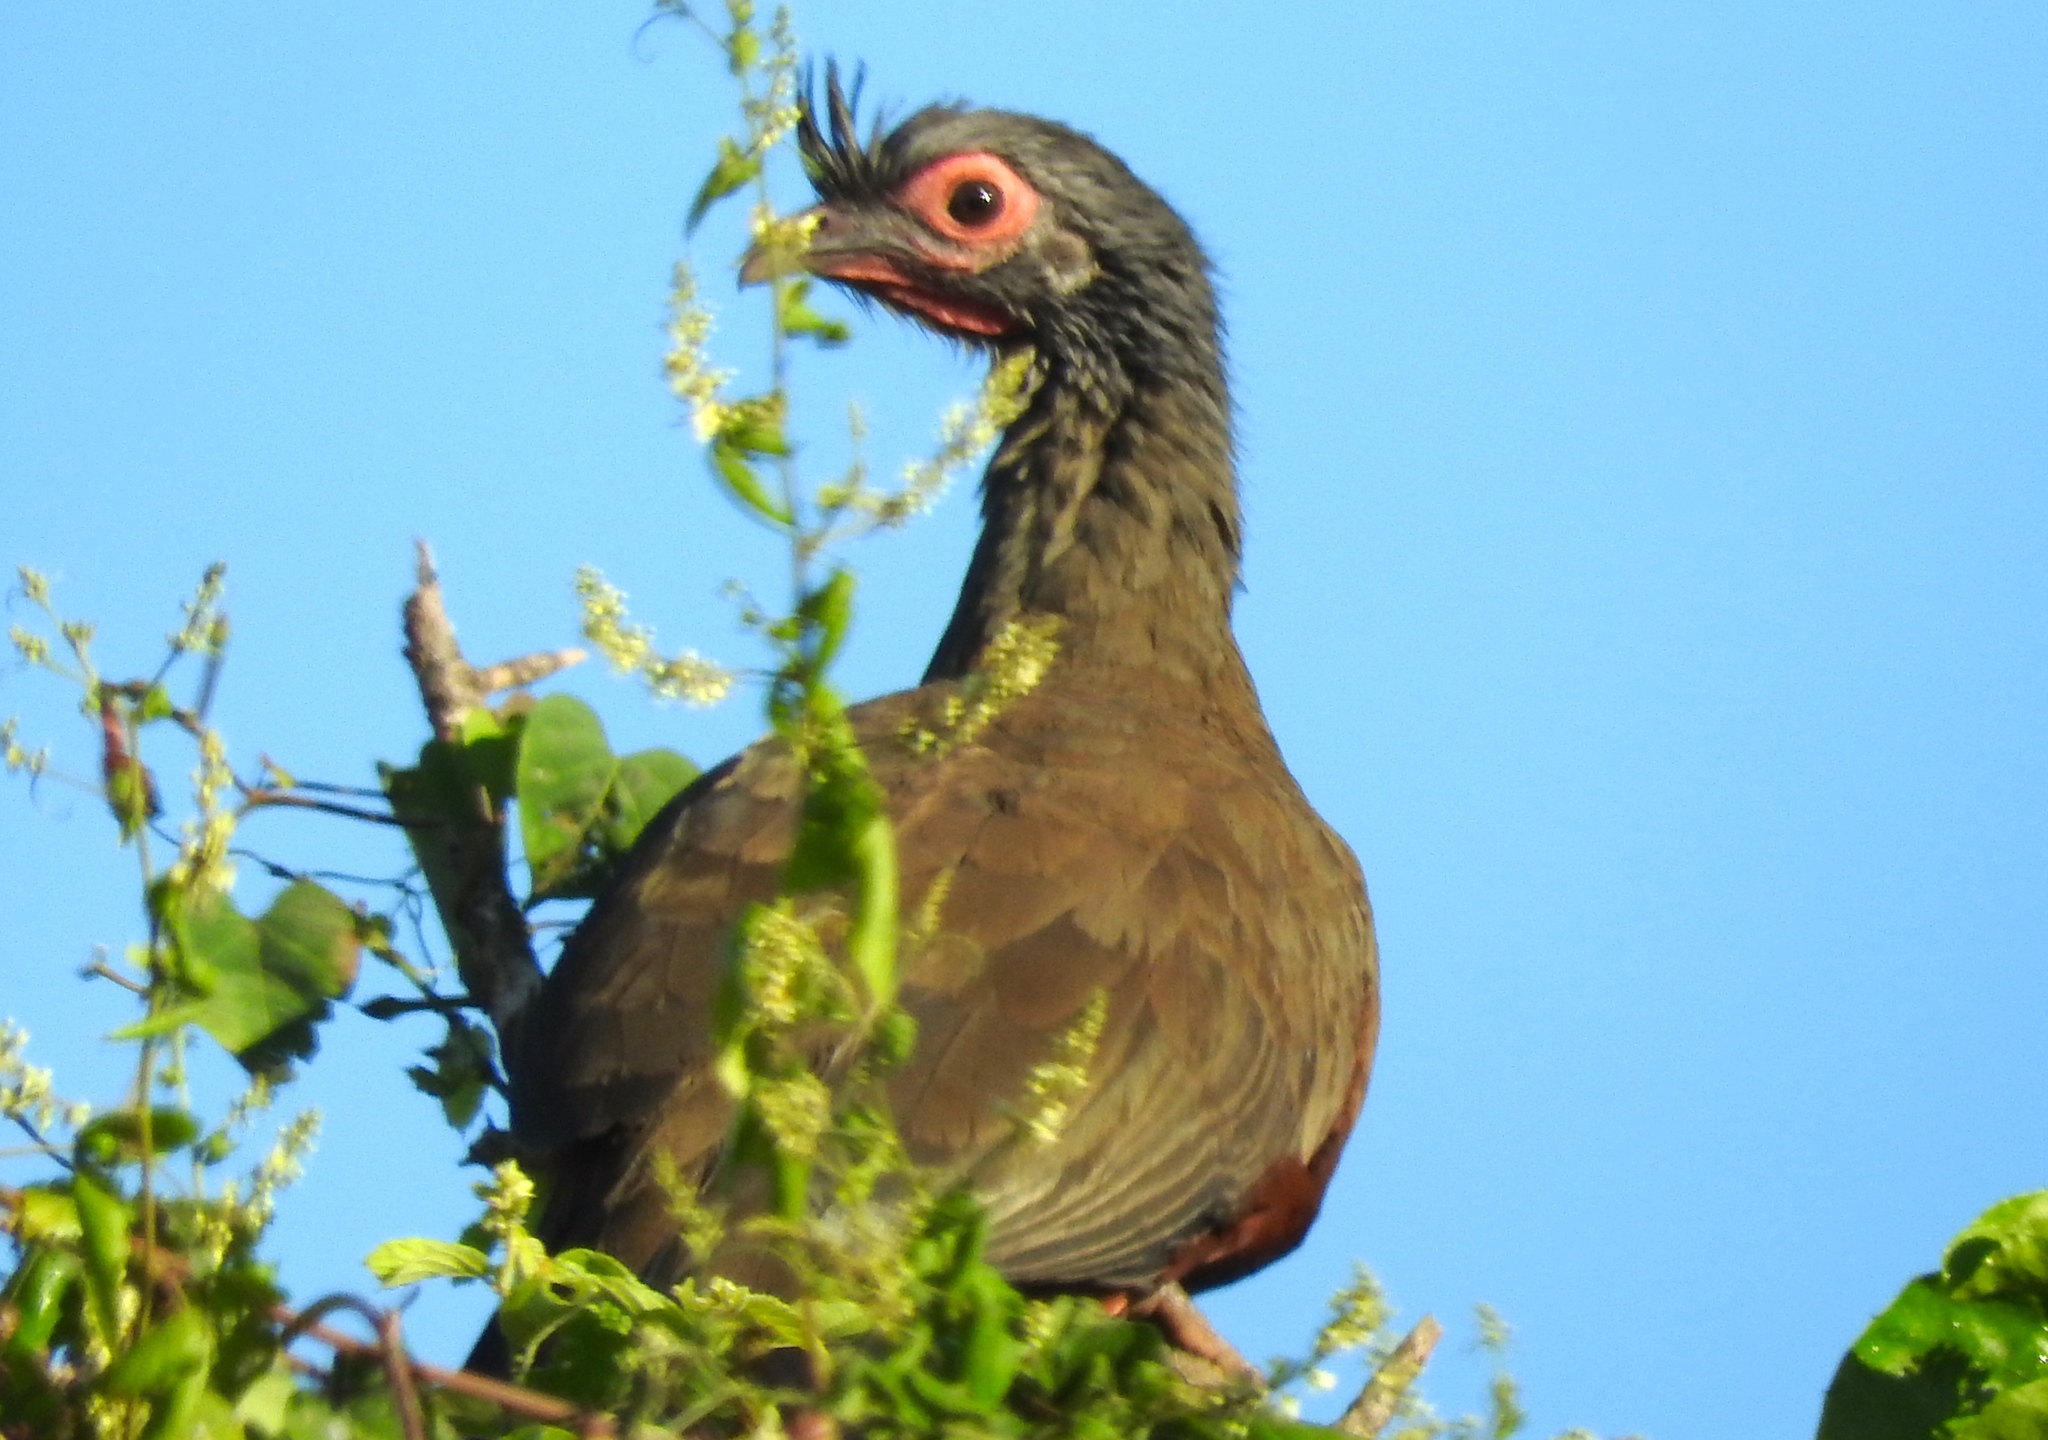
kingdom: Animalia
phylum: Chordata
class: Aves
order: Galliformes
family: Cracidae
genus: Ortalis
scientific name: Ortalis wagleri
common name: Rufous-bellied chachalaca
